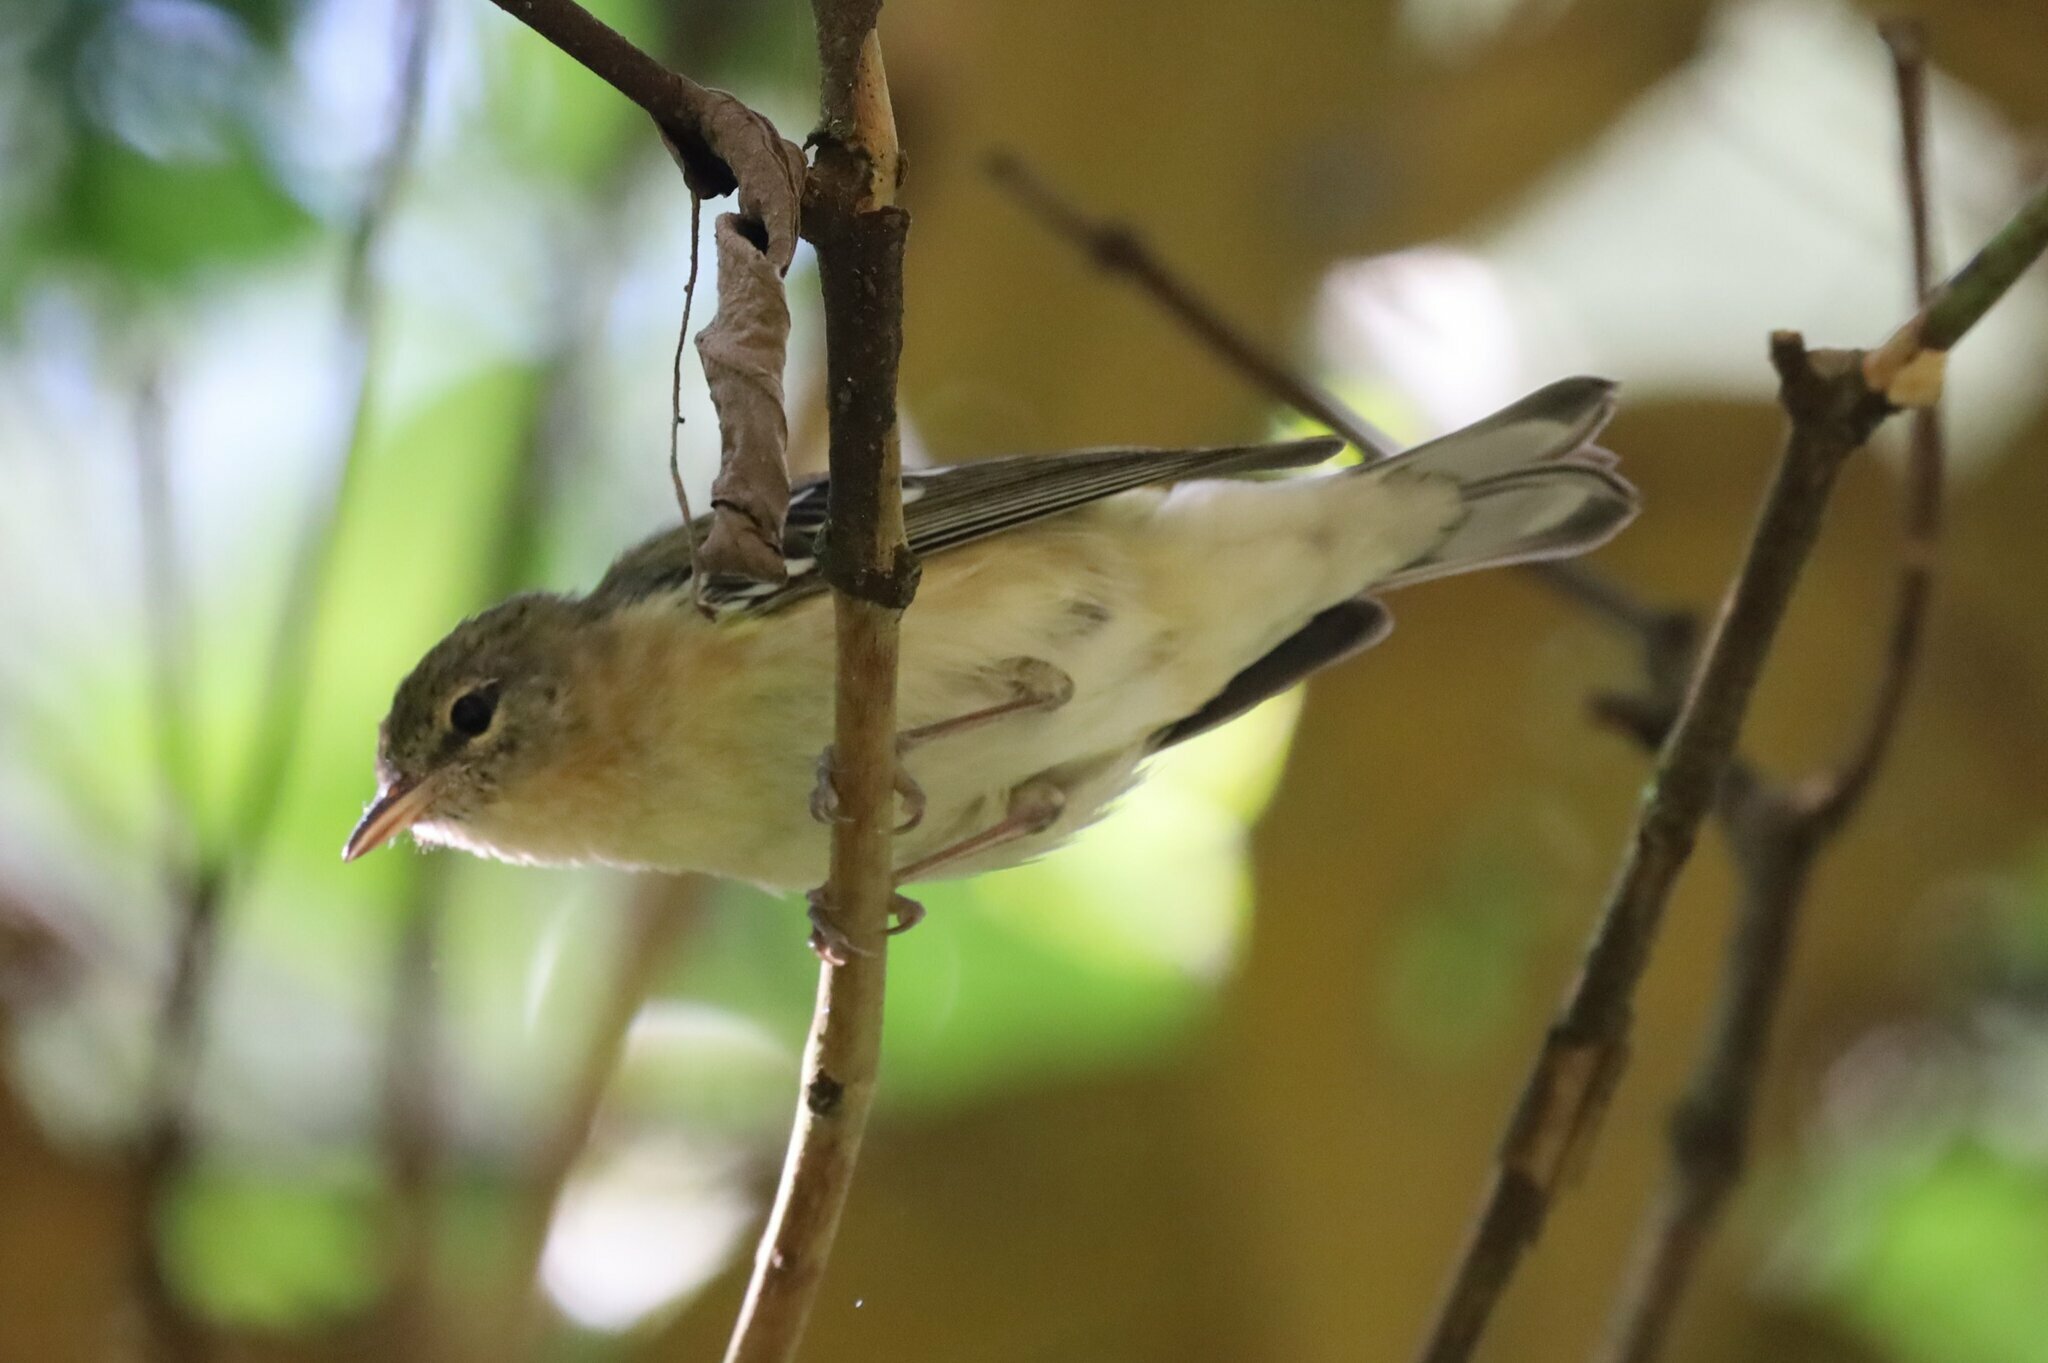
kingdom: Animalia
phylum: Chordata
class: Aves
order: Passeriformes
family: Parulidae
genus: Setophaga
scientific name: Setophaga castanea
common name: Bay-breasted warbler
